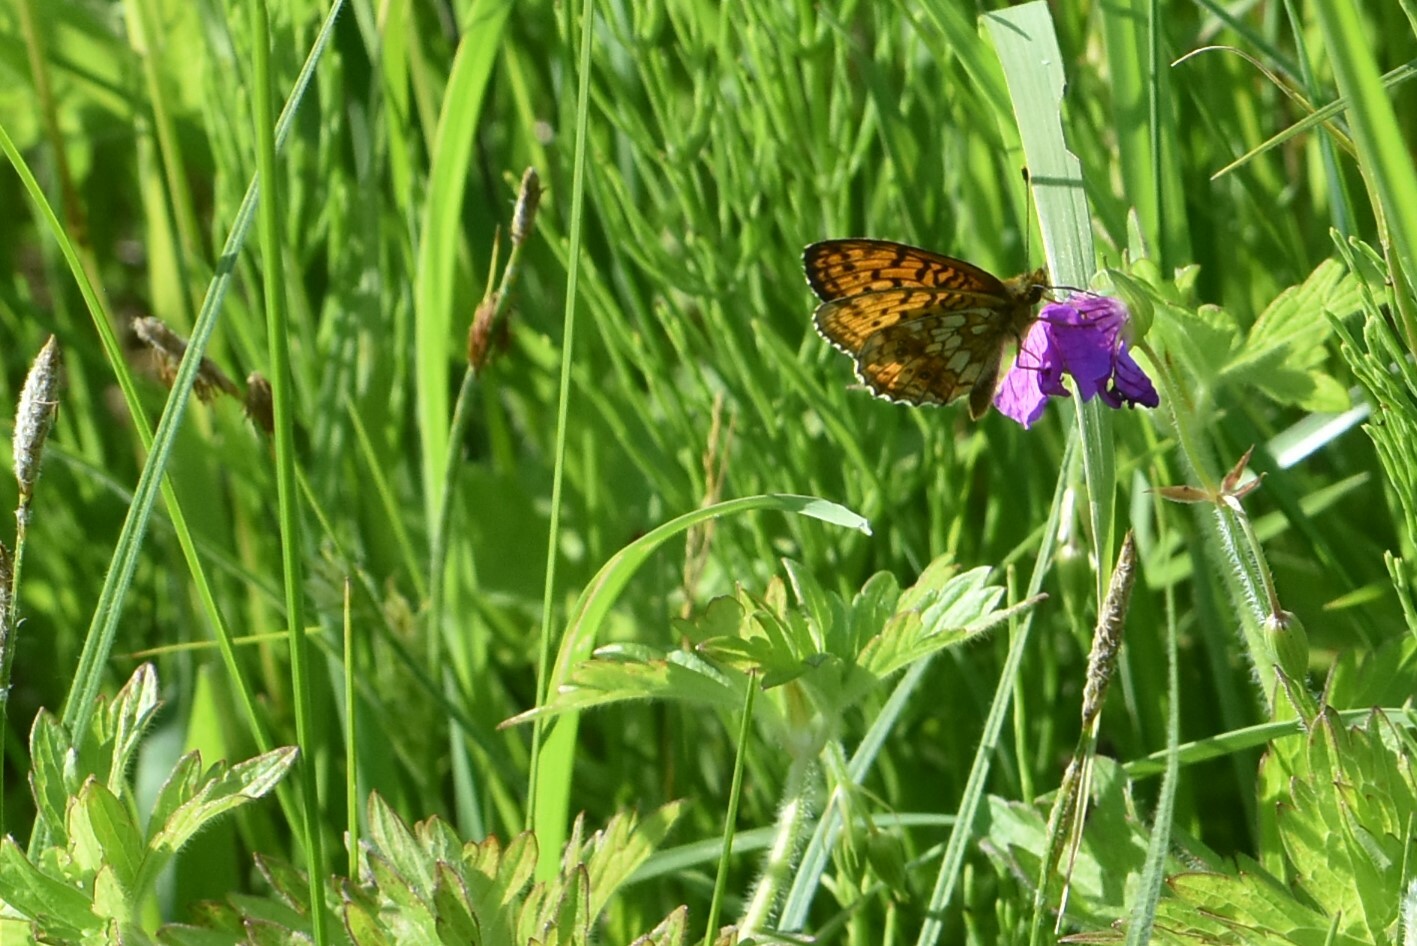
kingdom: Animalia
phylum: Arthropoda
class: Insecta
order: Lepidoptera
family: Nymphalidae
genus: Brenthis
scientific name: Brenthis ino
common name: Lesser marbled fritillary
